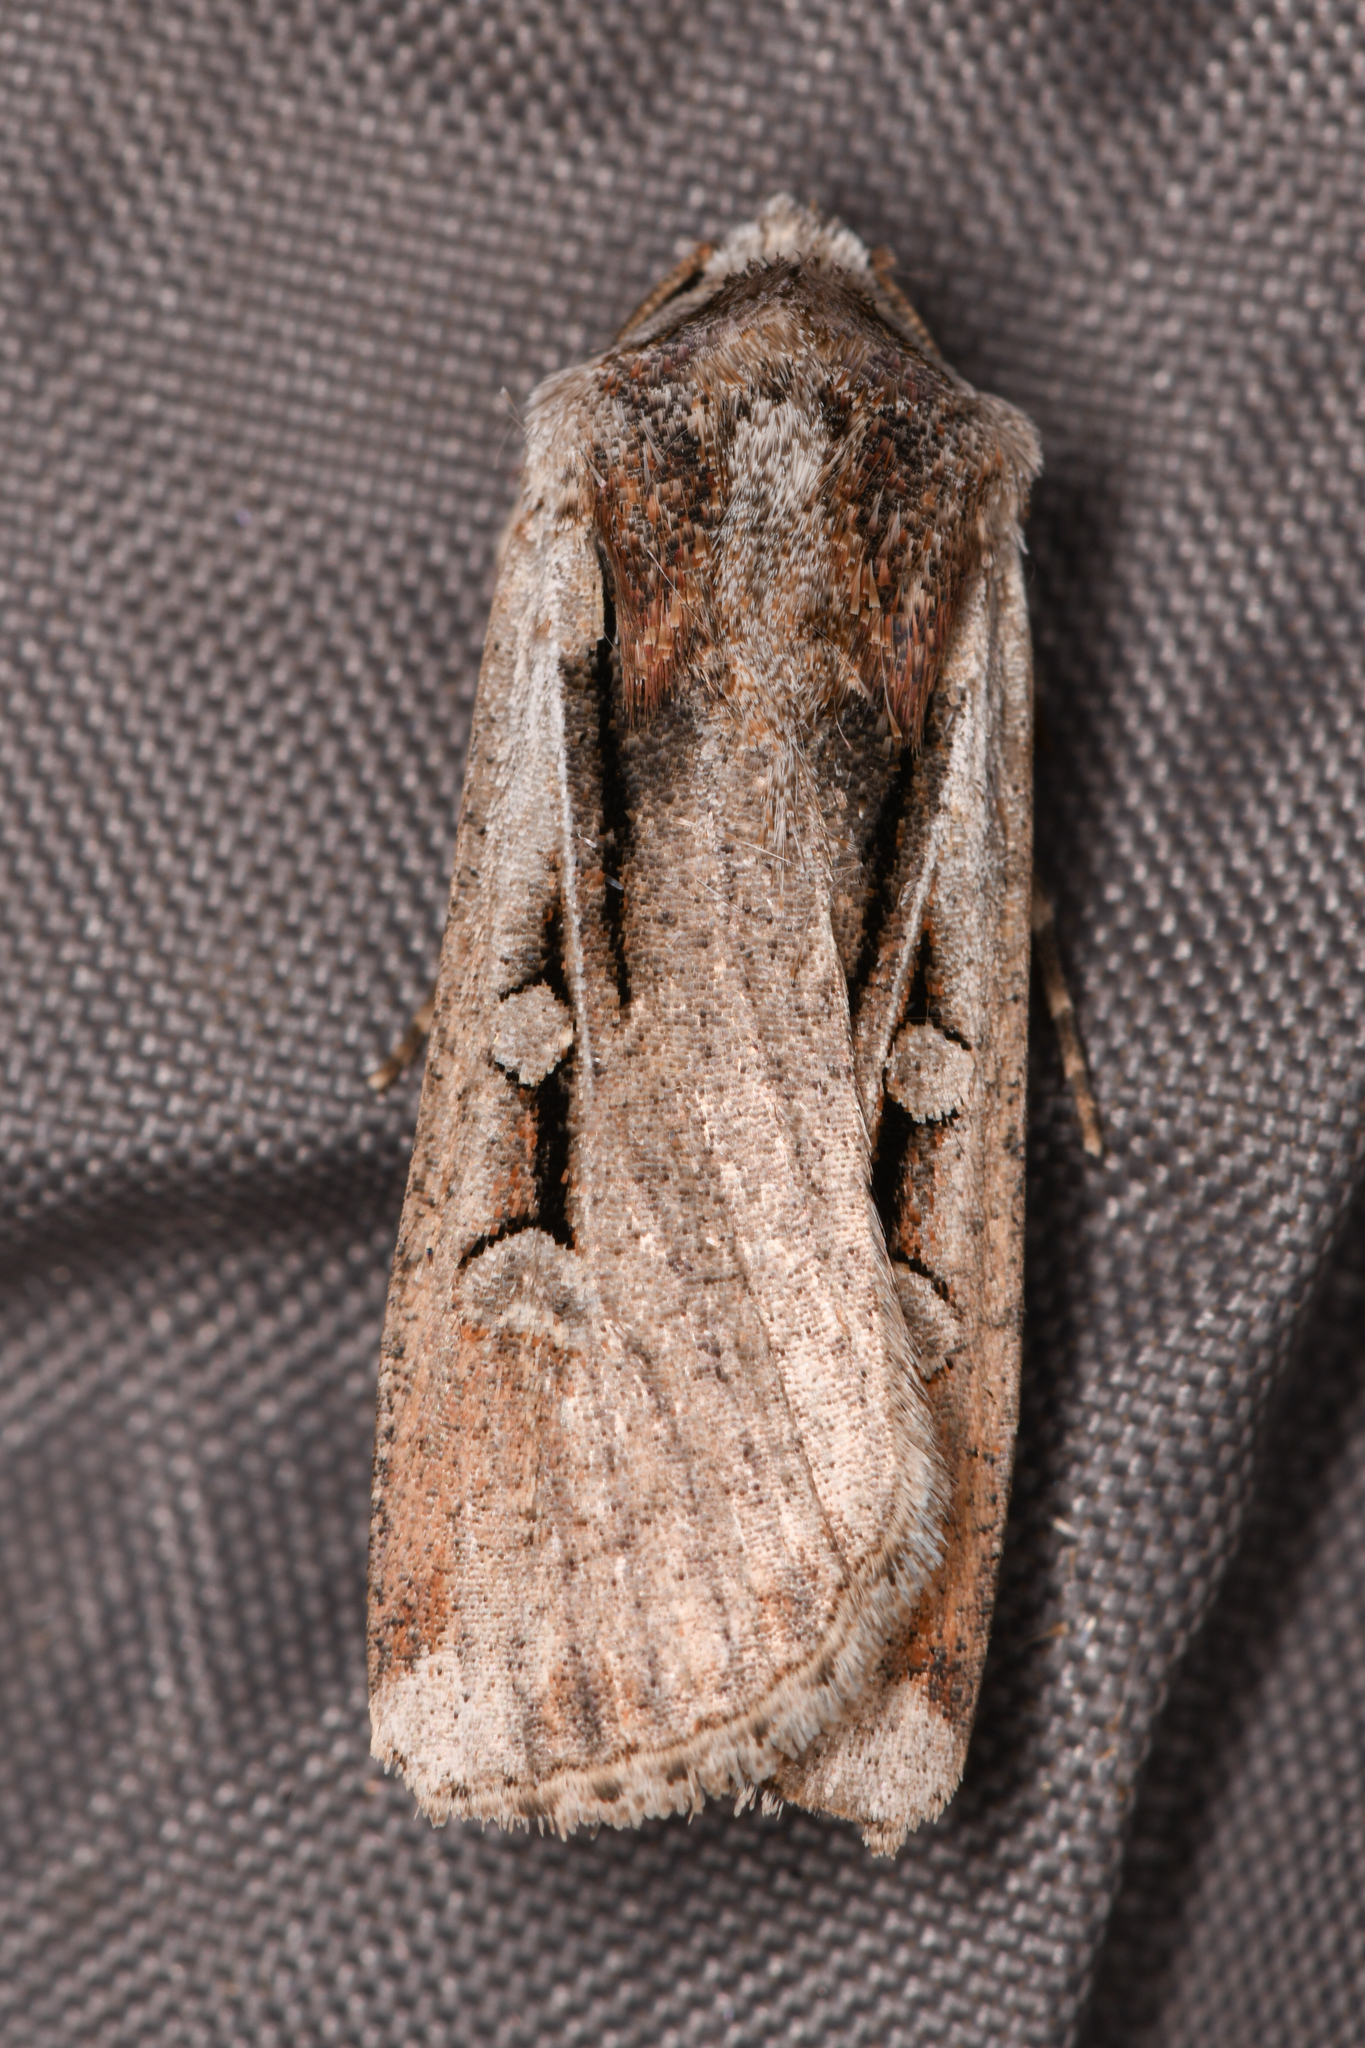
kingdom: Animalia
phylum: Arthropoda
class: Insecta
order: Lepidoptera
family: Noctuidae
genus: Hemieuxoa
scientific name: Hemieuxoa rudens
